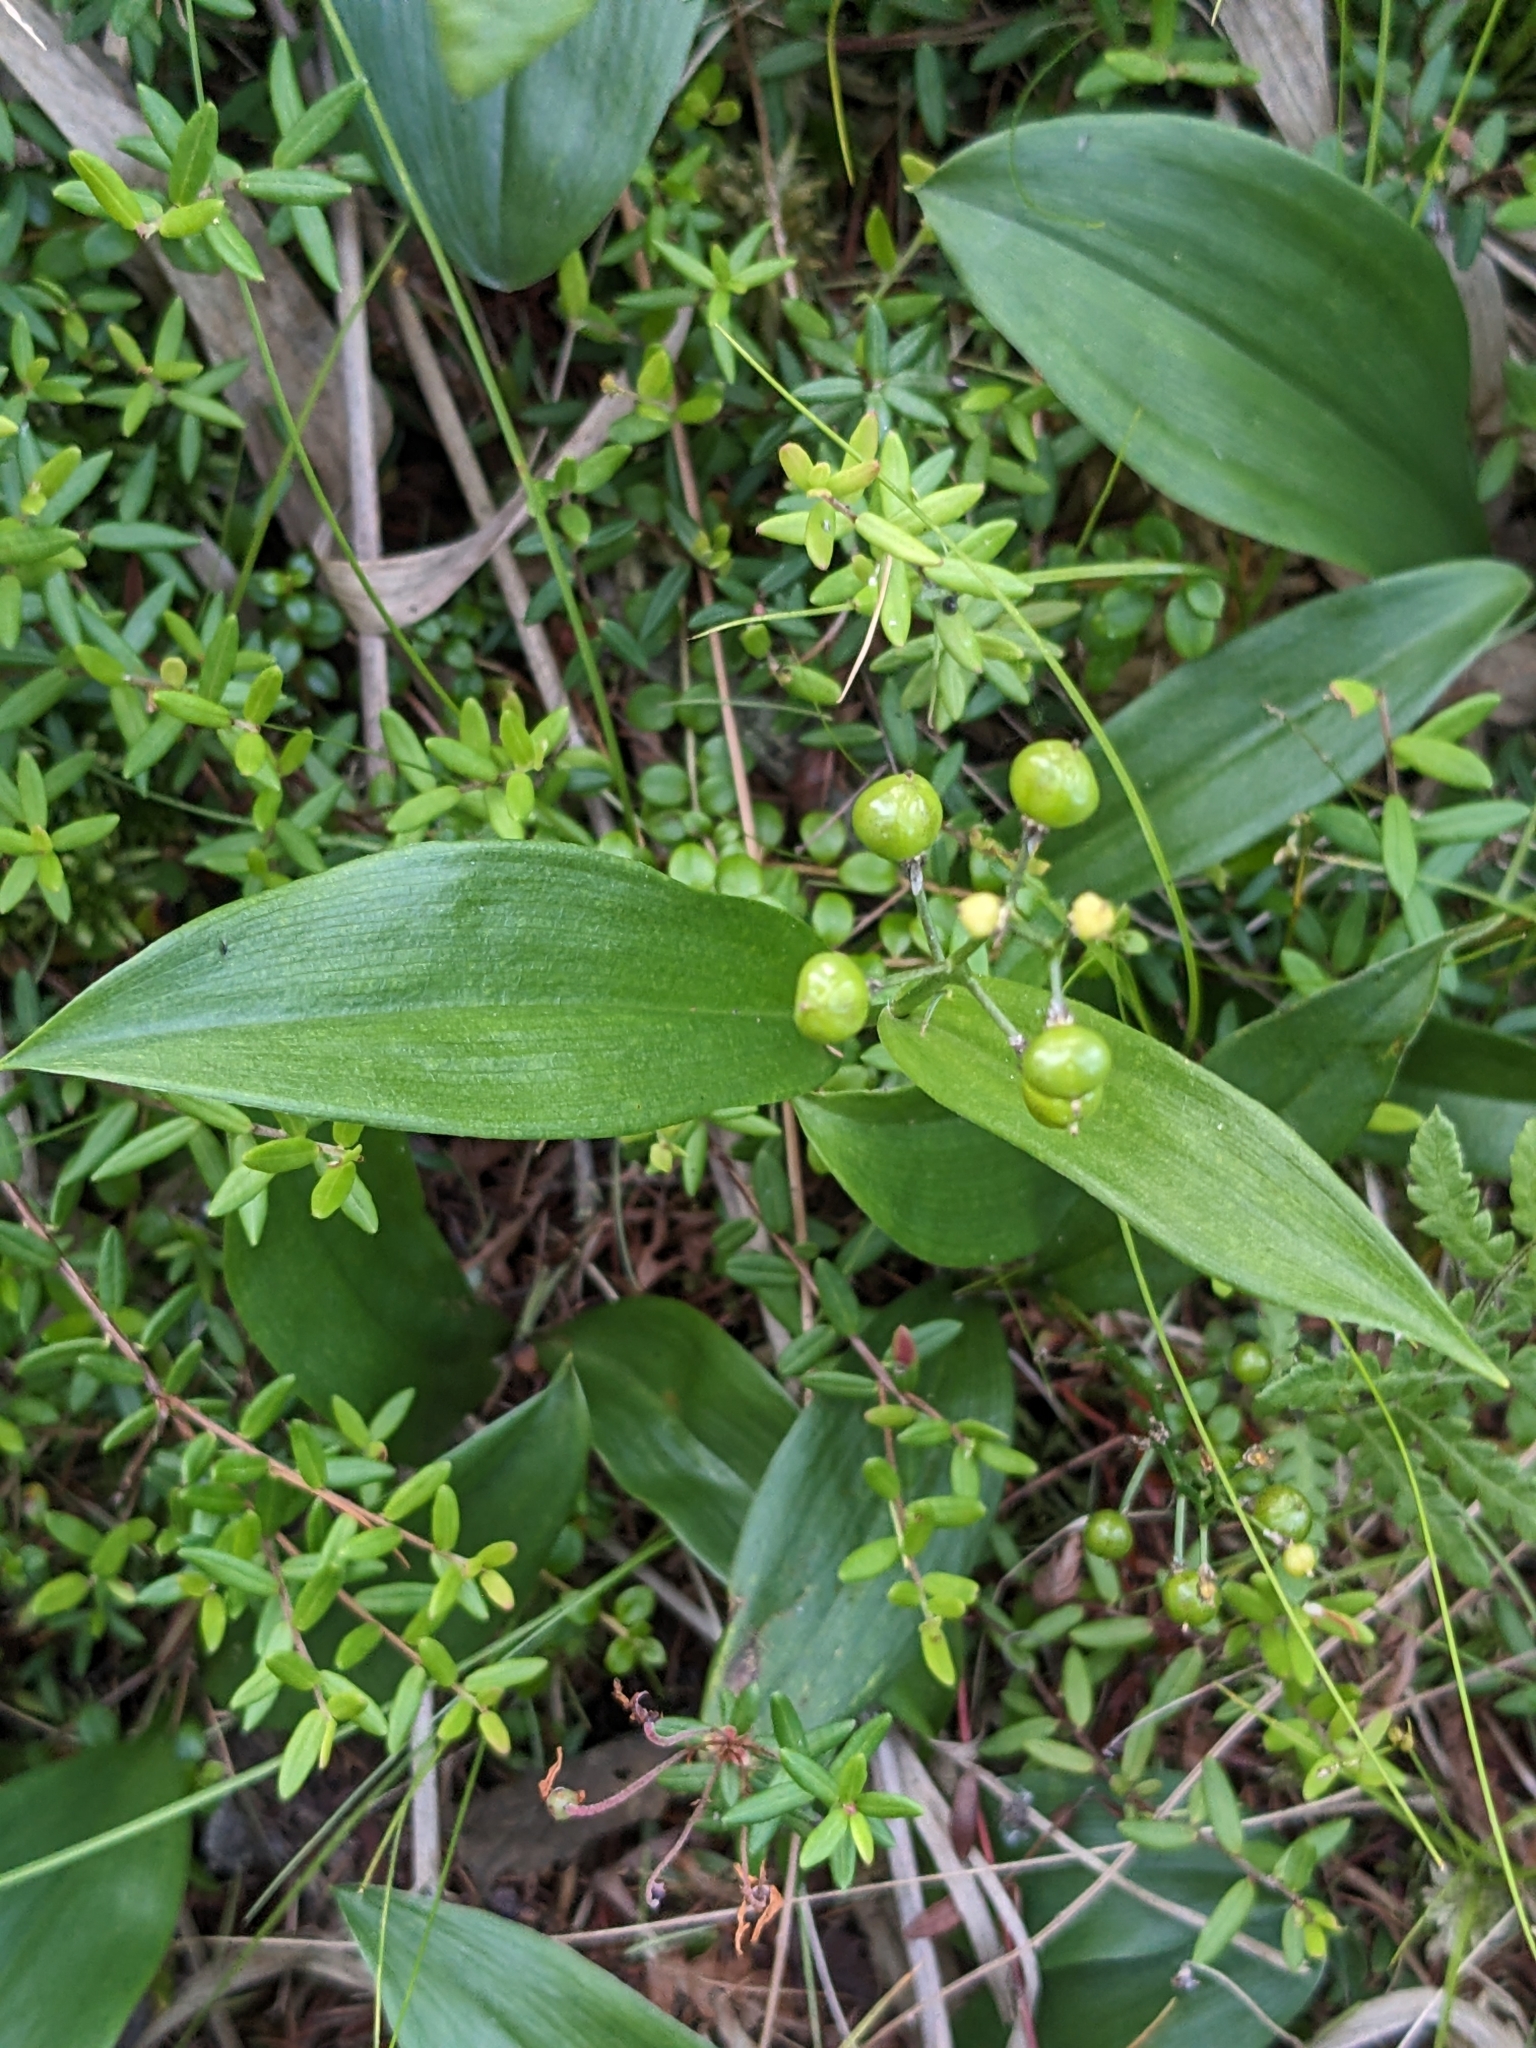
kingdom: Plantae
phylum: Tracheophyta
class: Liliopsida
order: Asparagales
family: Asparagaceae
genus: Maianthemum
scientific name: Maianthemum trifolium
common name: Swamp false solomon's seal
